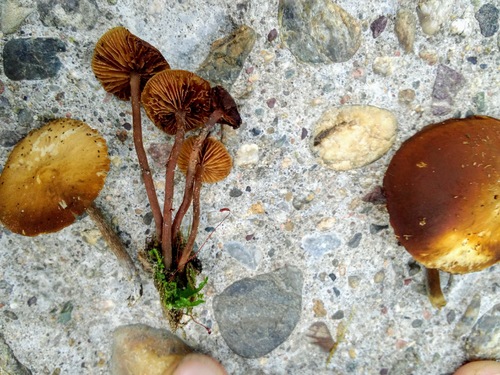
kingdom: Fungi
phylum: Basidiomycota
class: Agaricomycetes
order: Agaricales
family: Strophariaceae
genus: Pholiota
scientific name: Pholiota lignicola
